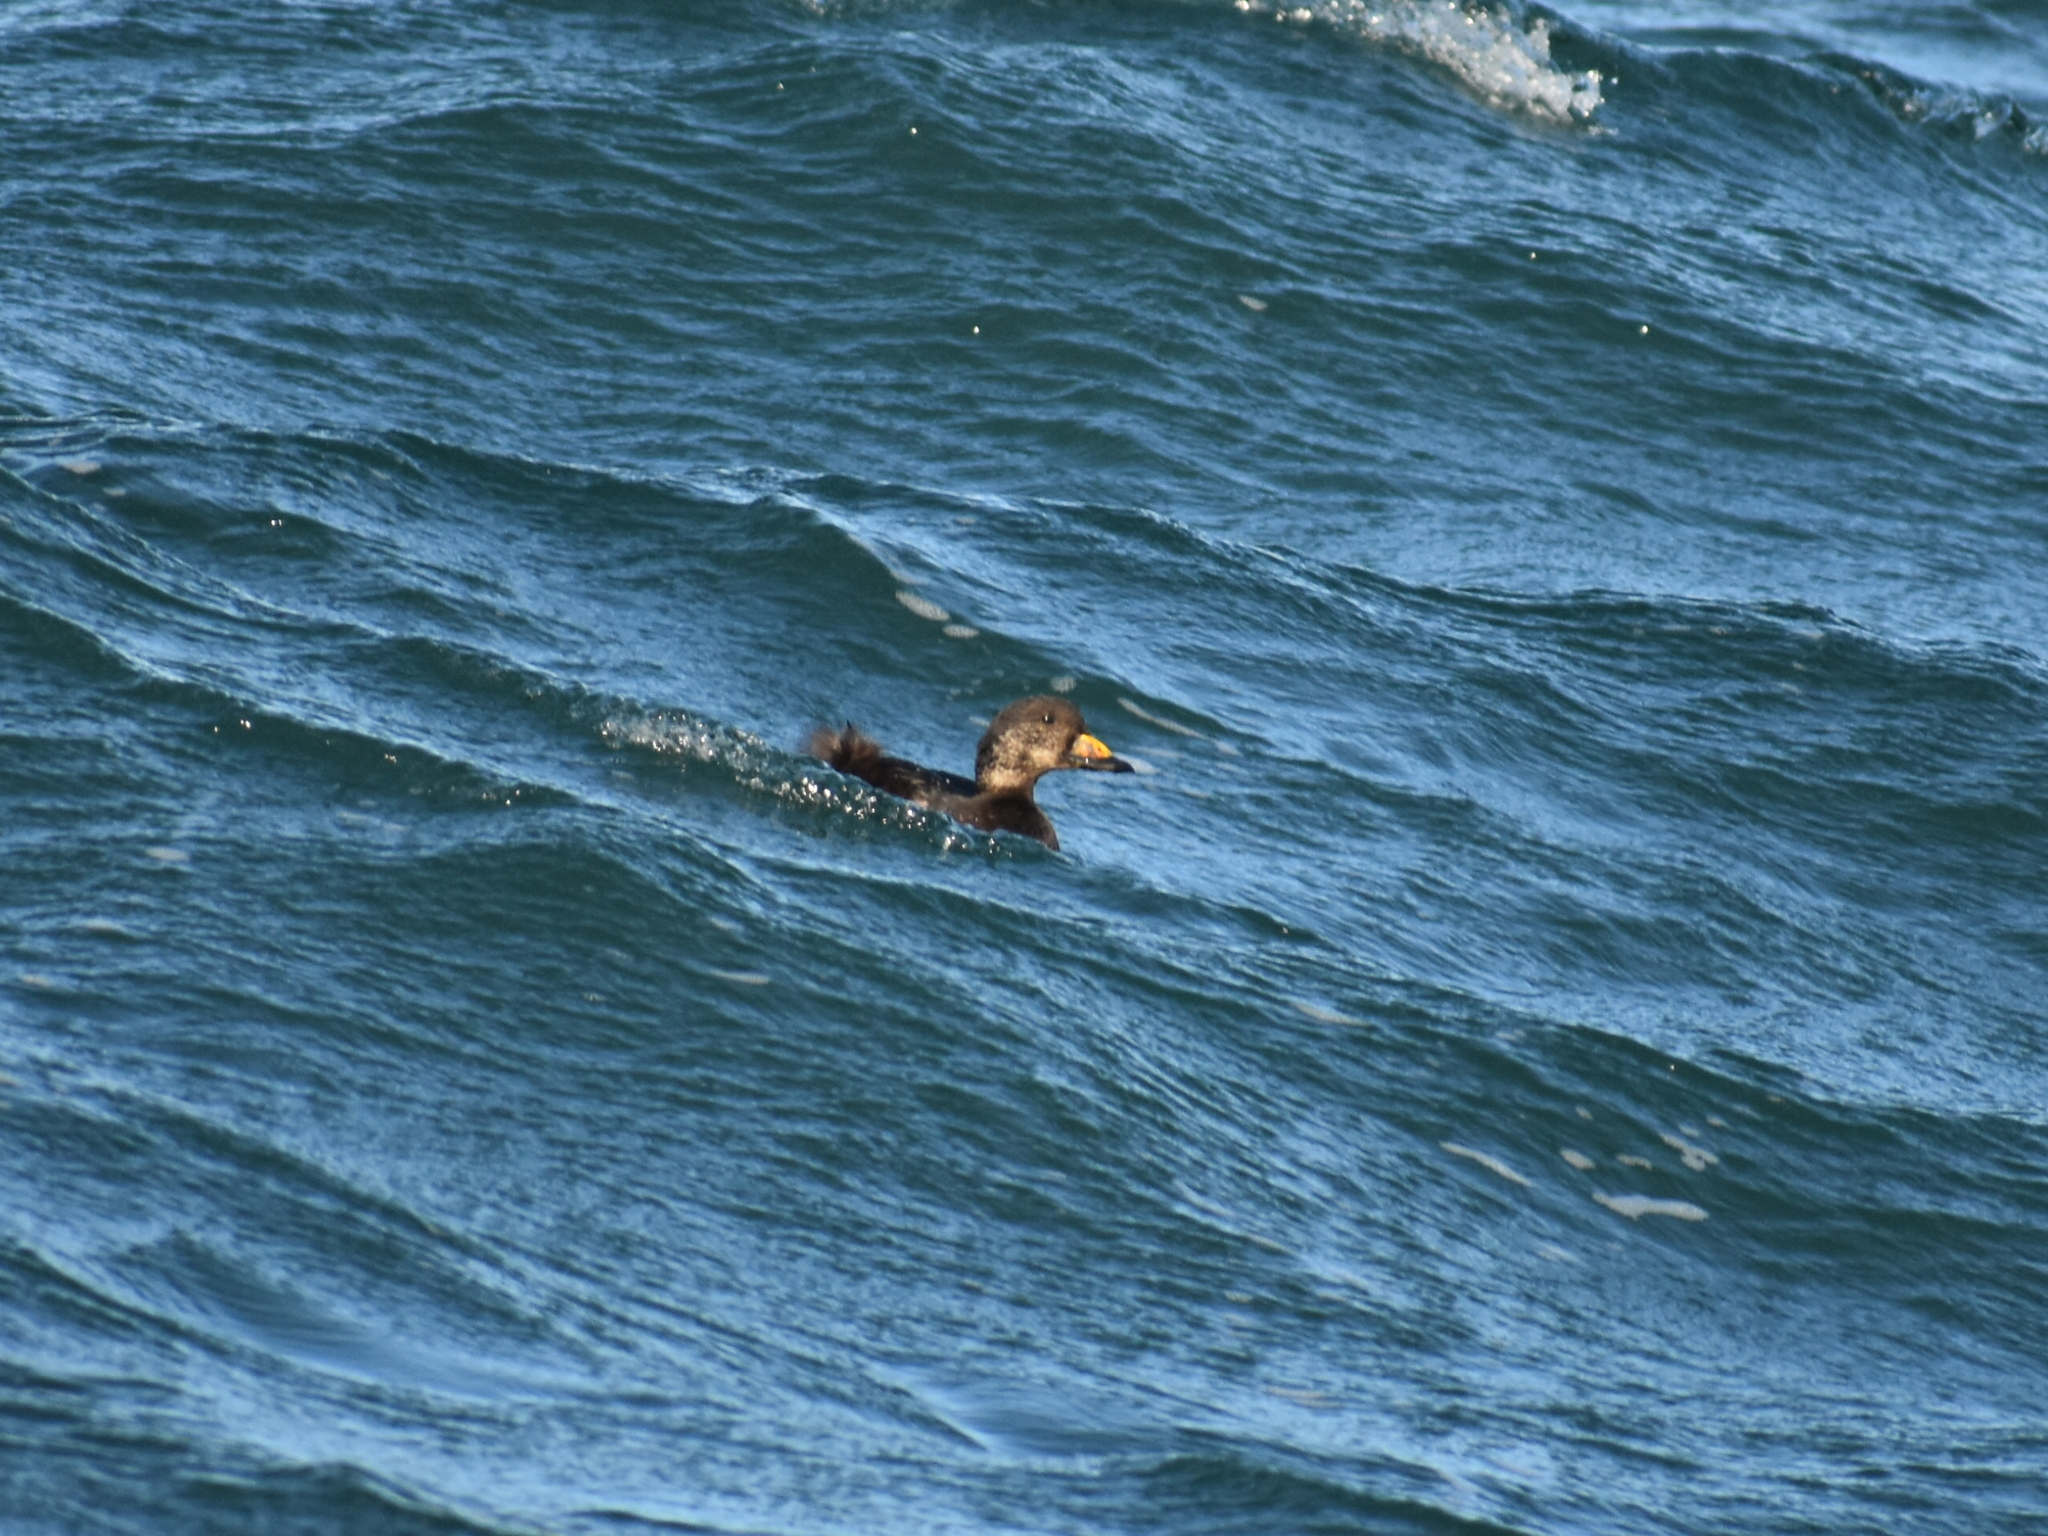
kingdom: Animalia
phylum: Chordata
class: Aves
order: Anseriformes
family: Anatidae
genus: Melanitta
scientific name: Melanitta americana
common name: Black scoter
